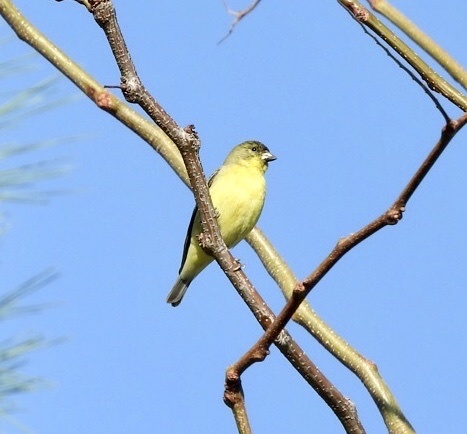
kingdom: Animalia
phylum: Chordata
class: Aves
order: Passeriformes
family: Fringillidae
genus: Spinus
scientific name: Spinus psaltria
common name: Lesser goldfinch
